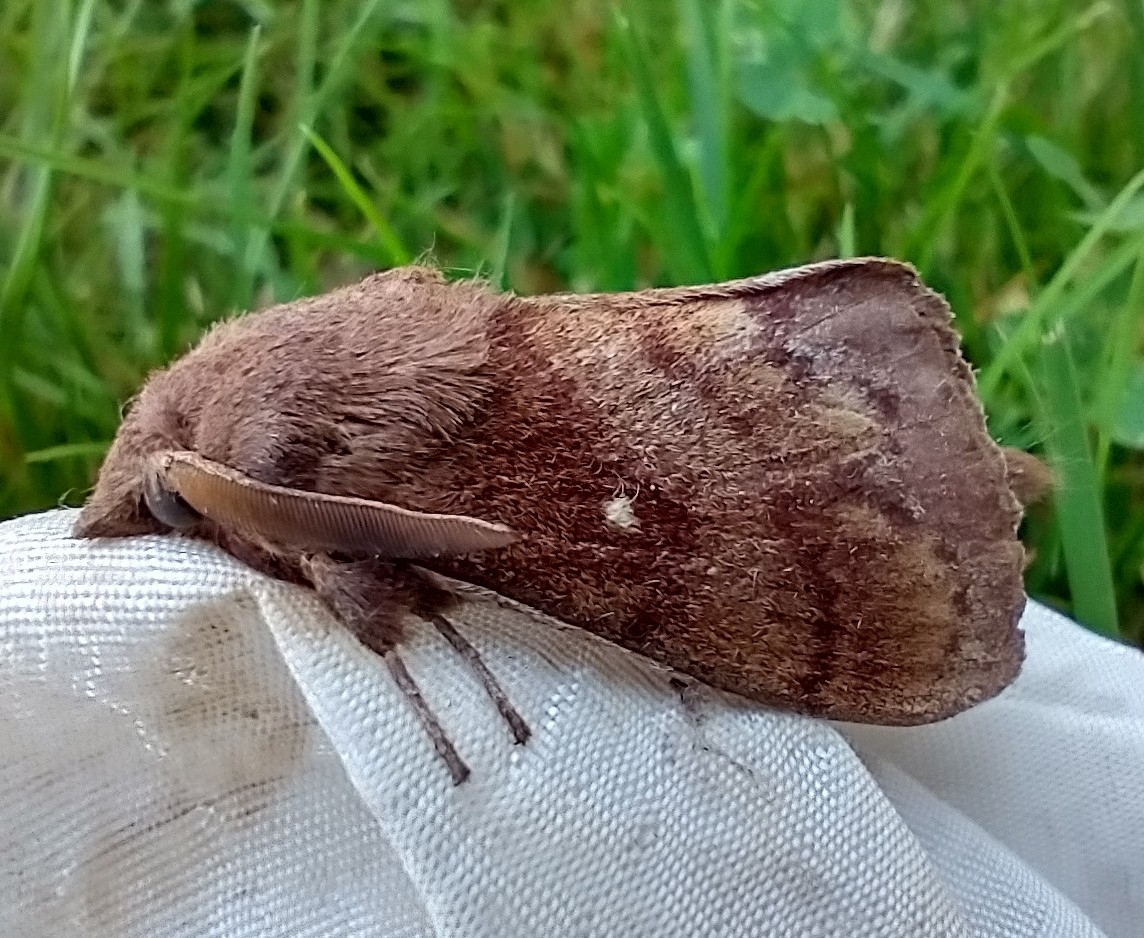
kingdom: Animalia
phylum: Arthropoda
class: Insecta
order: Lepidoptera
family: Lasiocampidae
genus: Dendrolimus
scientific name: Dendrolimus pini
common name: Pine-tree lappet
